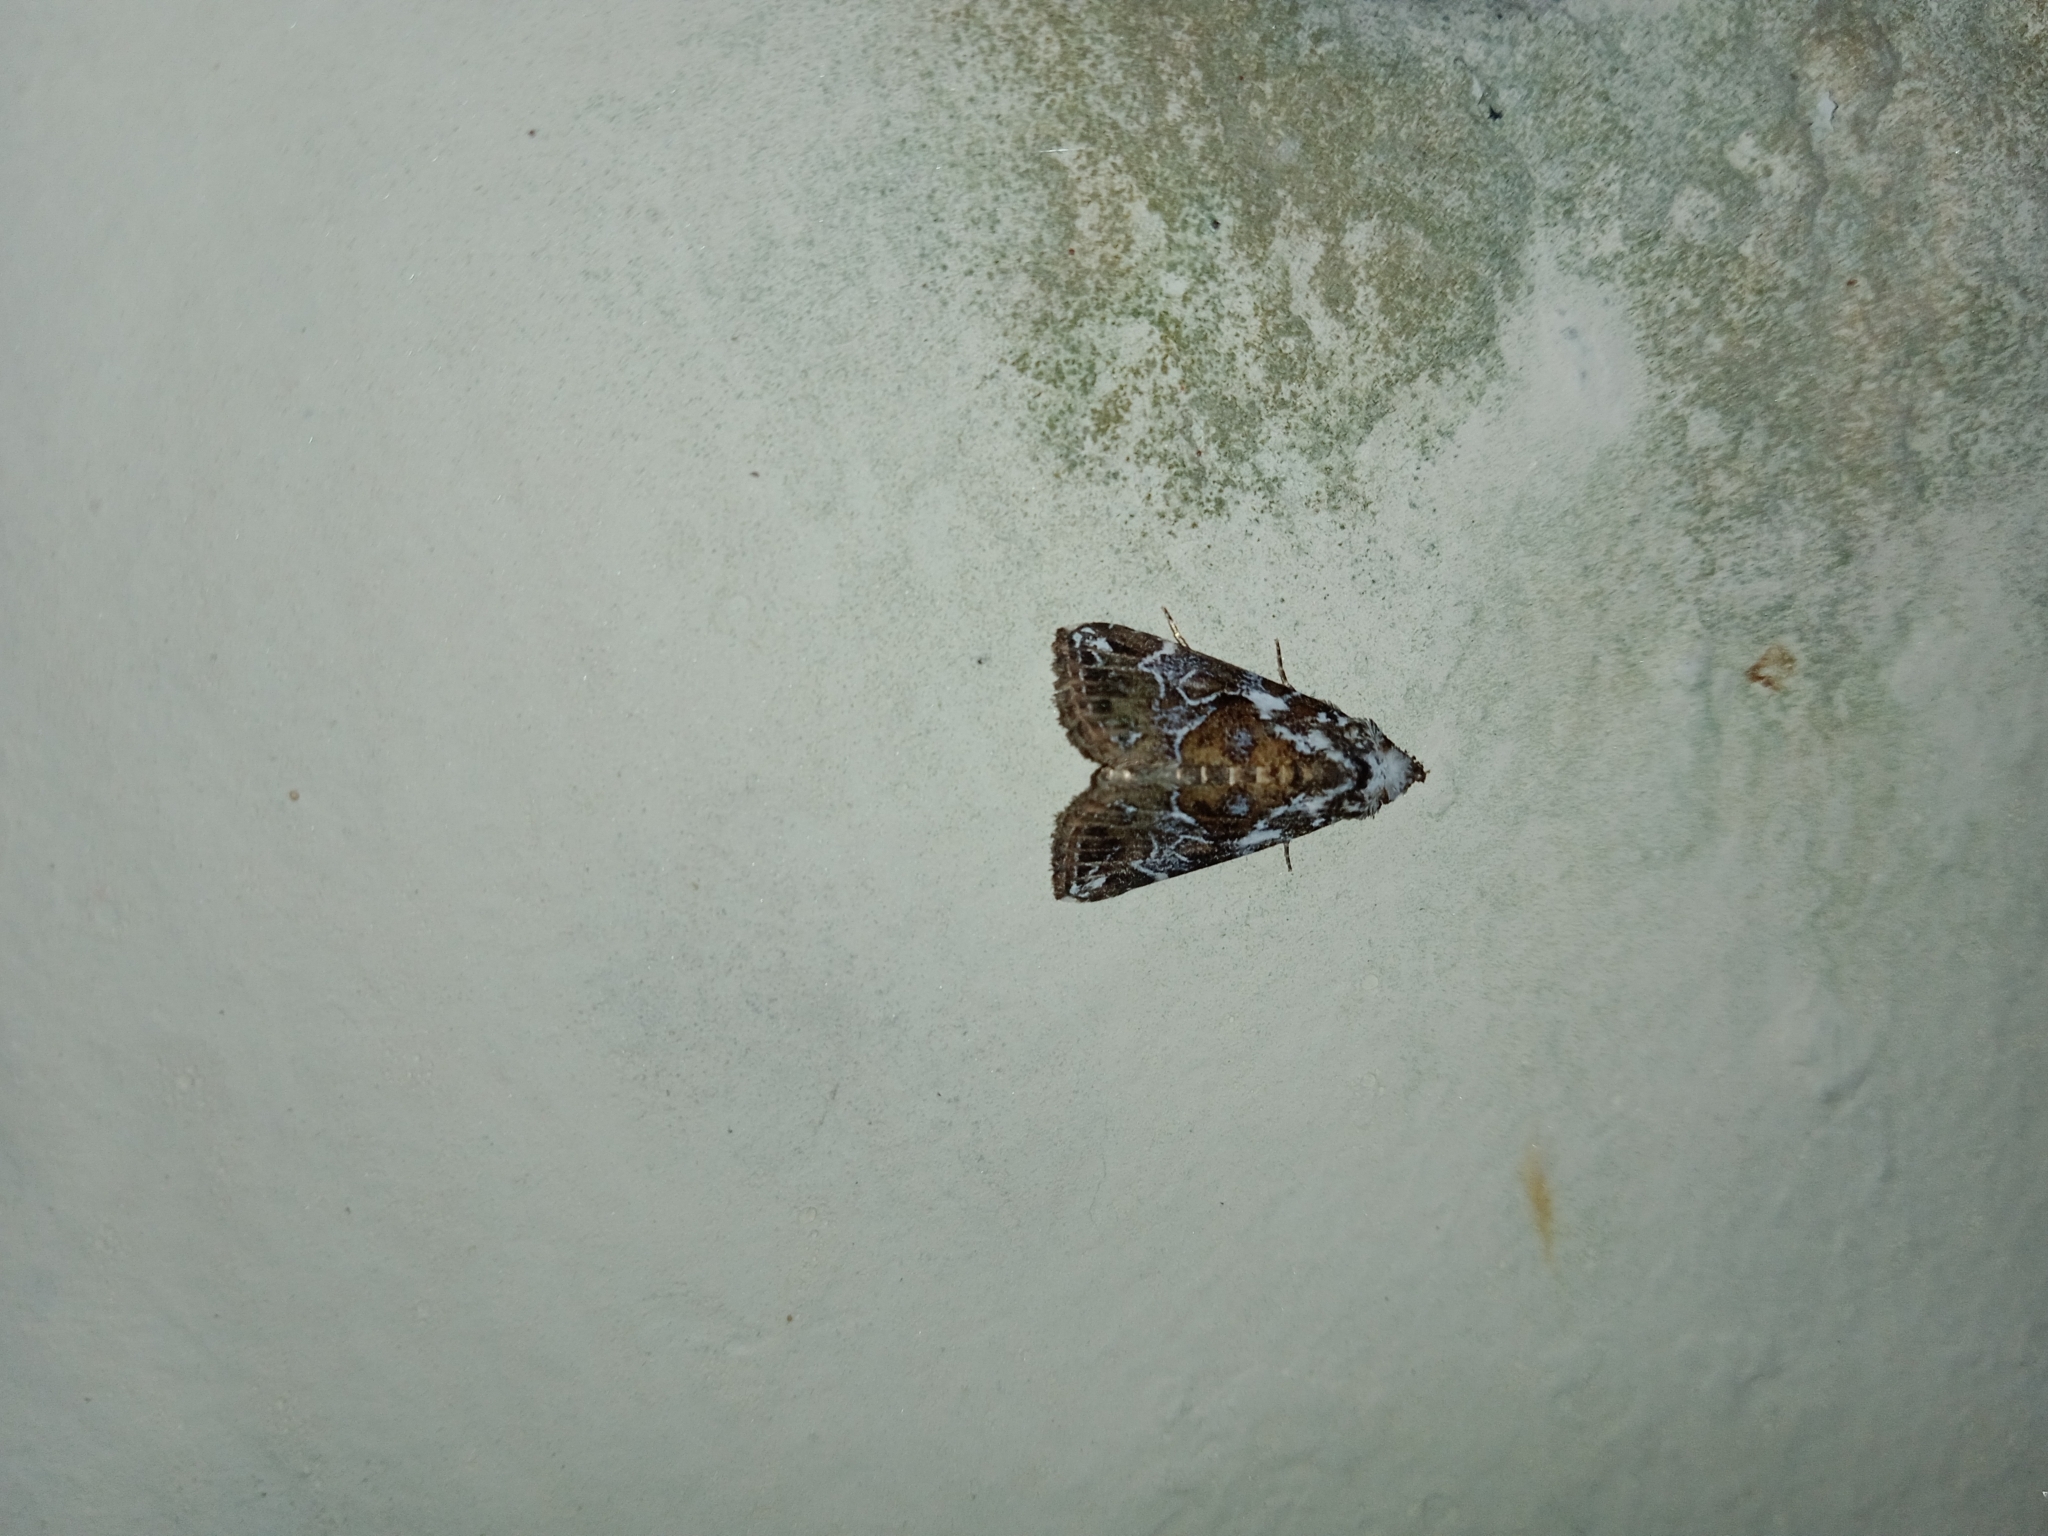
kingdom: Animalia
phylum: Arthropoda
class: Insecta
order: Lepidoptera
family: Erebidae
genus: Chorsia
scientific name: Chorsia albiscriptus
